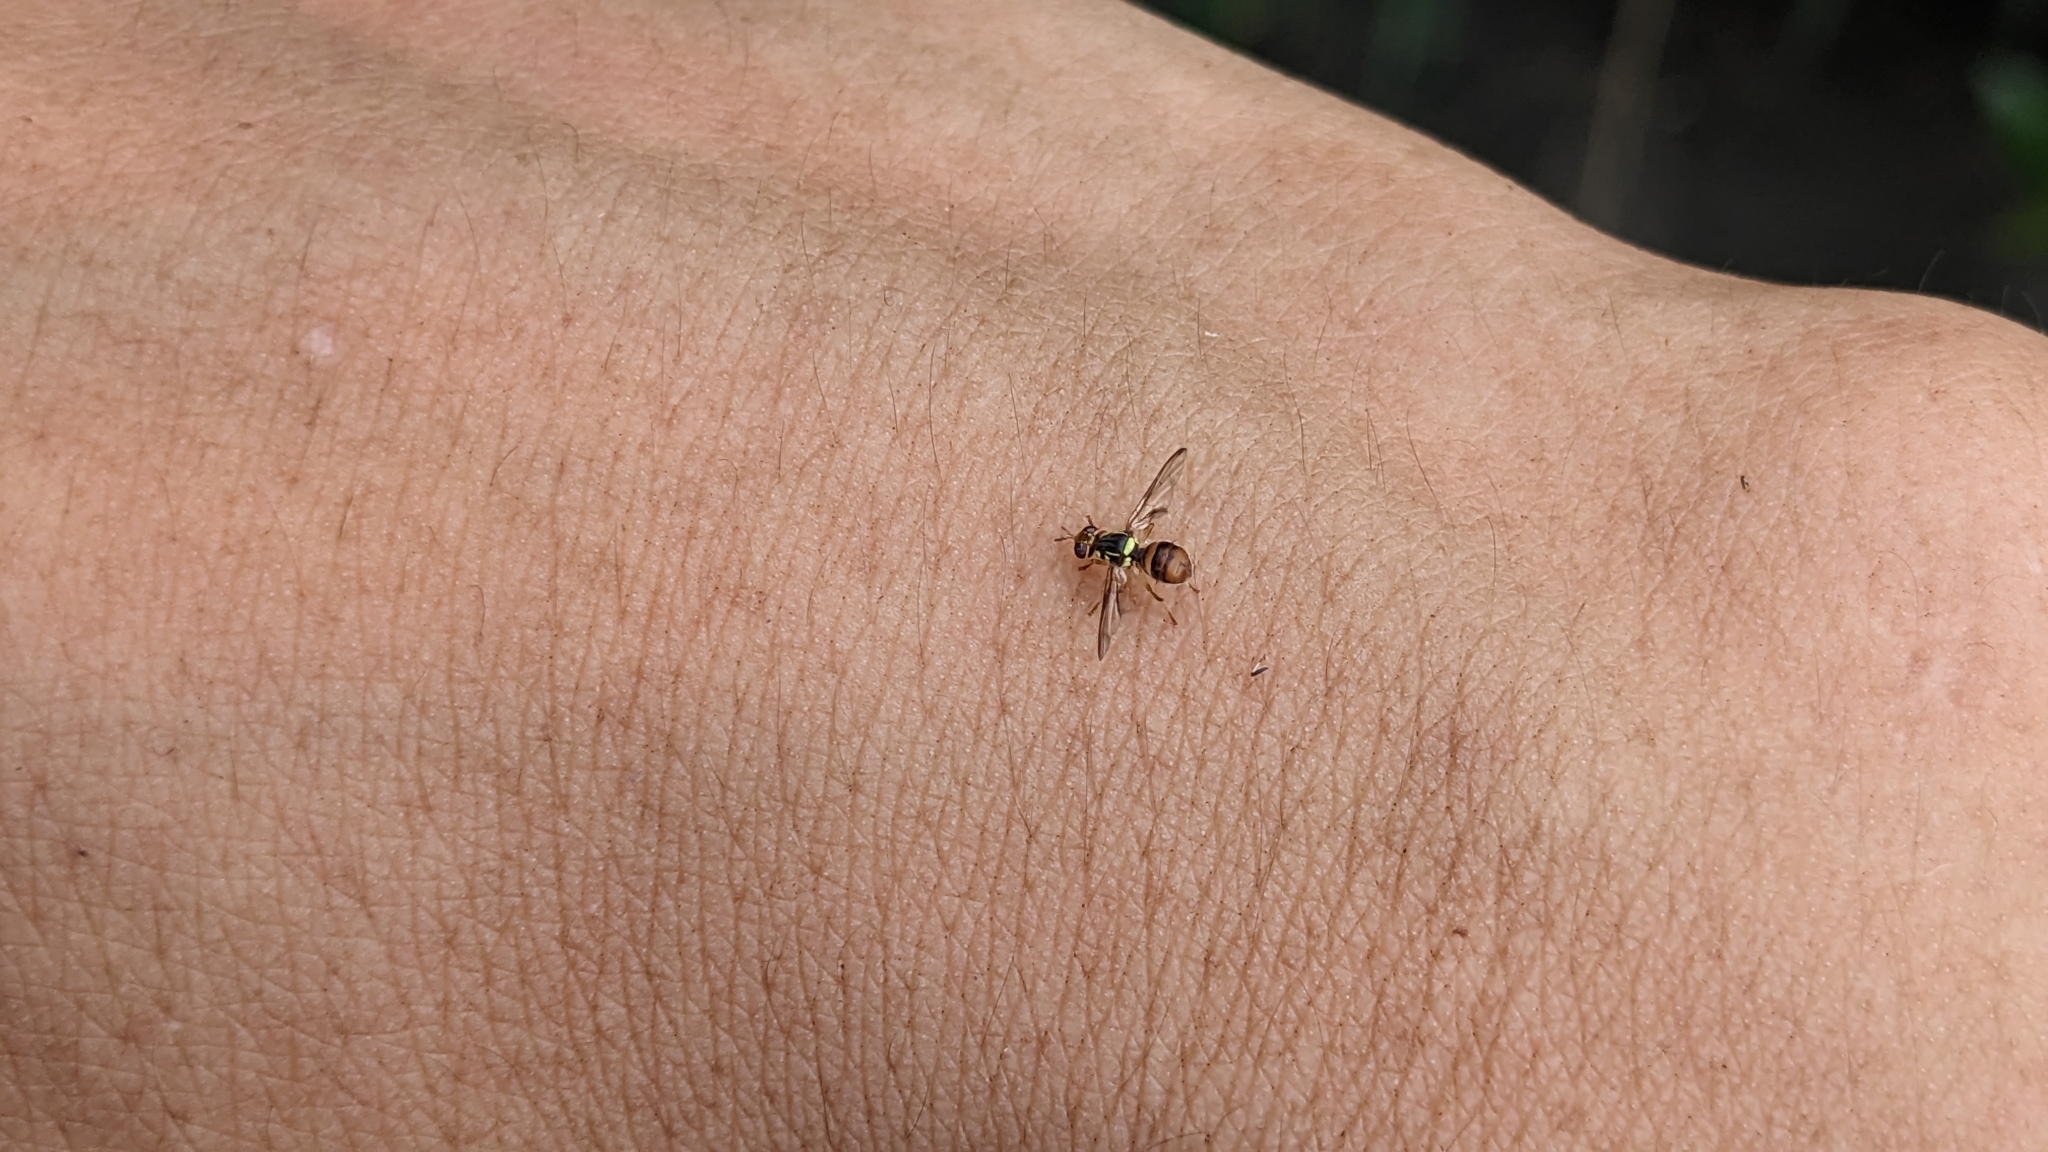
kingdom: Animalia
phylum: Arthropoda
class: Insecta
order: Diptera
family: Tephritidae
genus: Bactrocera
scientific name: Bactrocera dorsalis
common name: Oriental fruit fly
